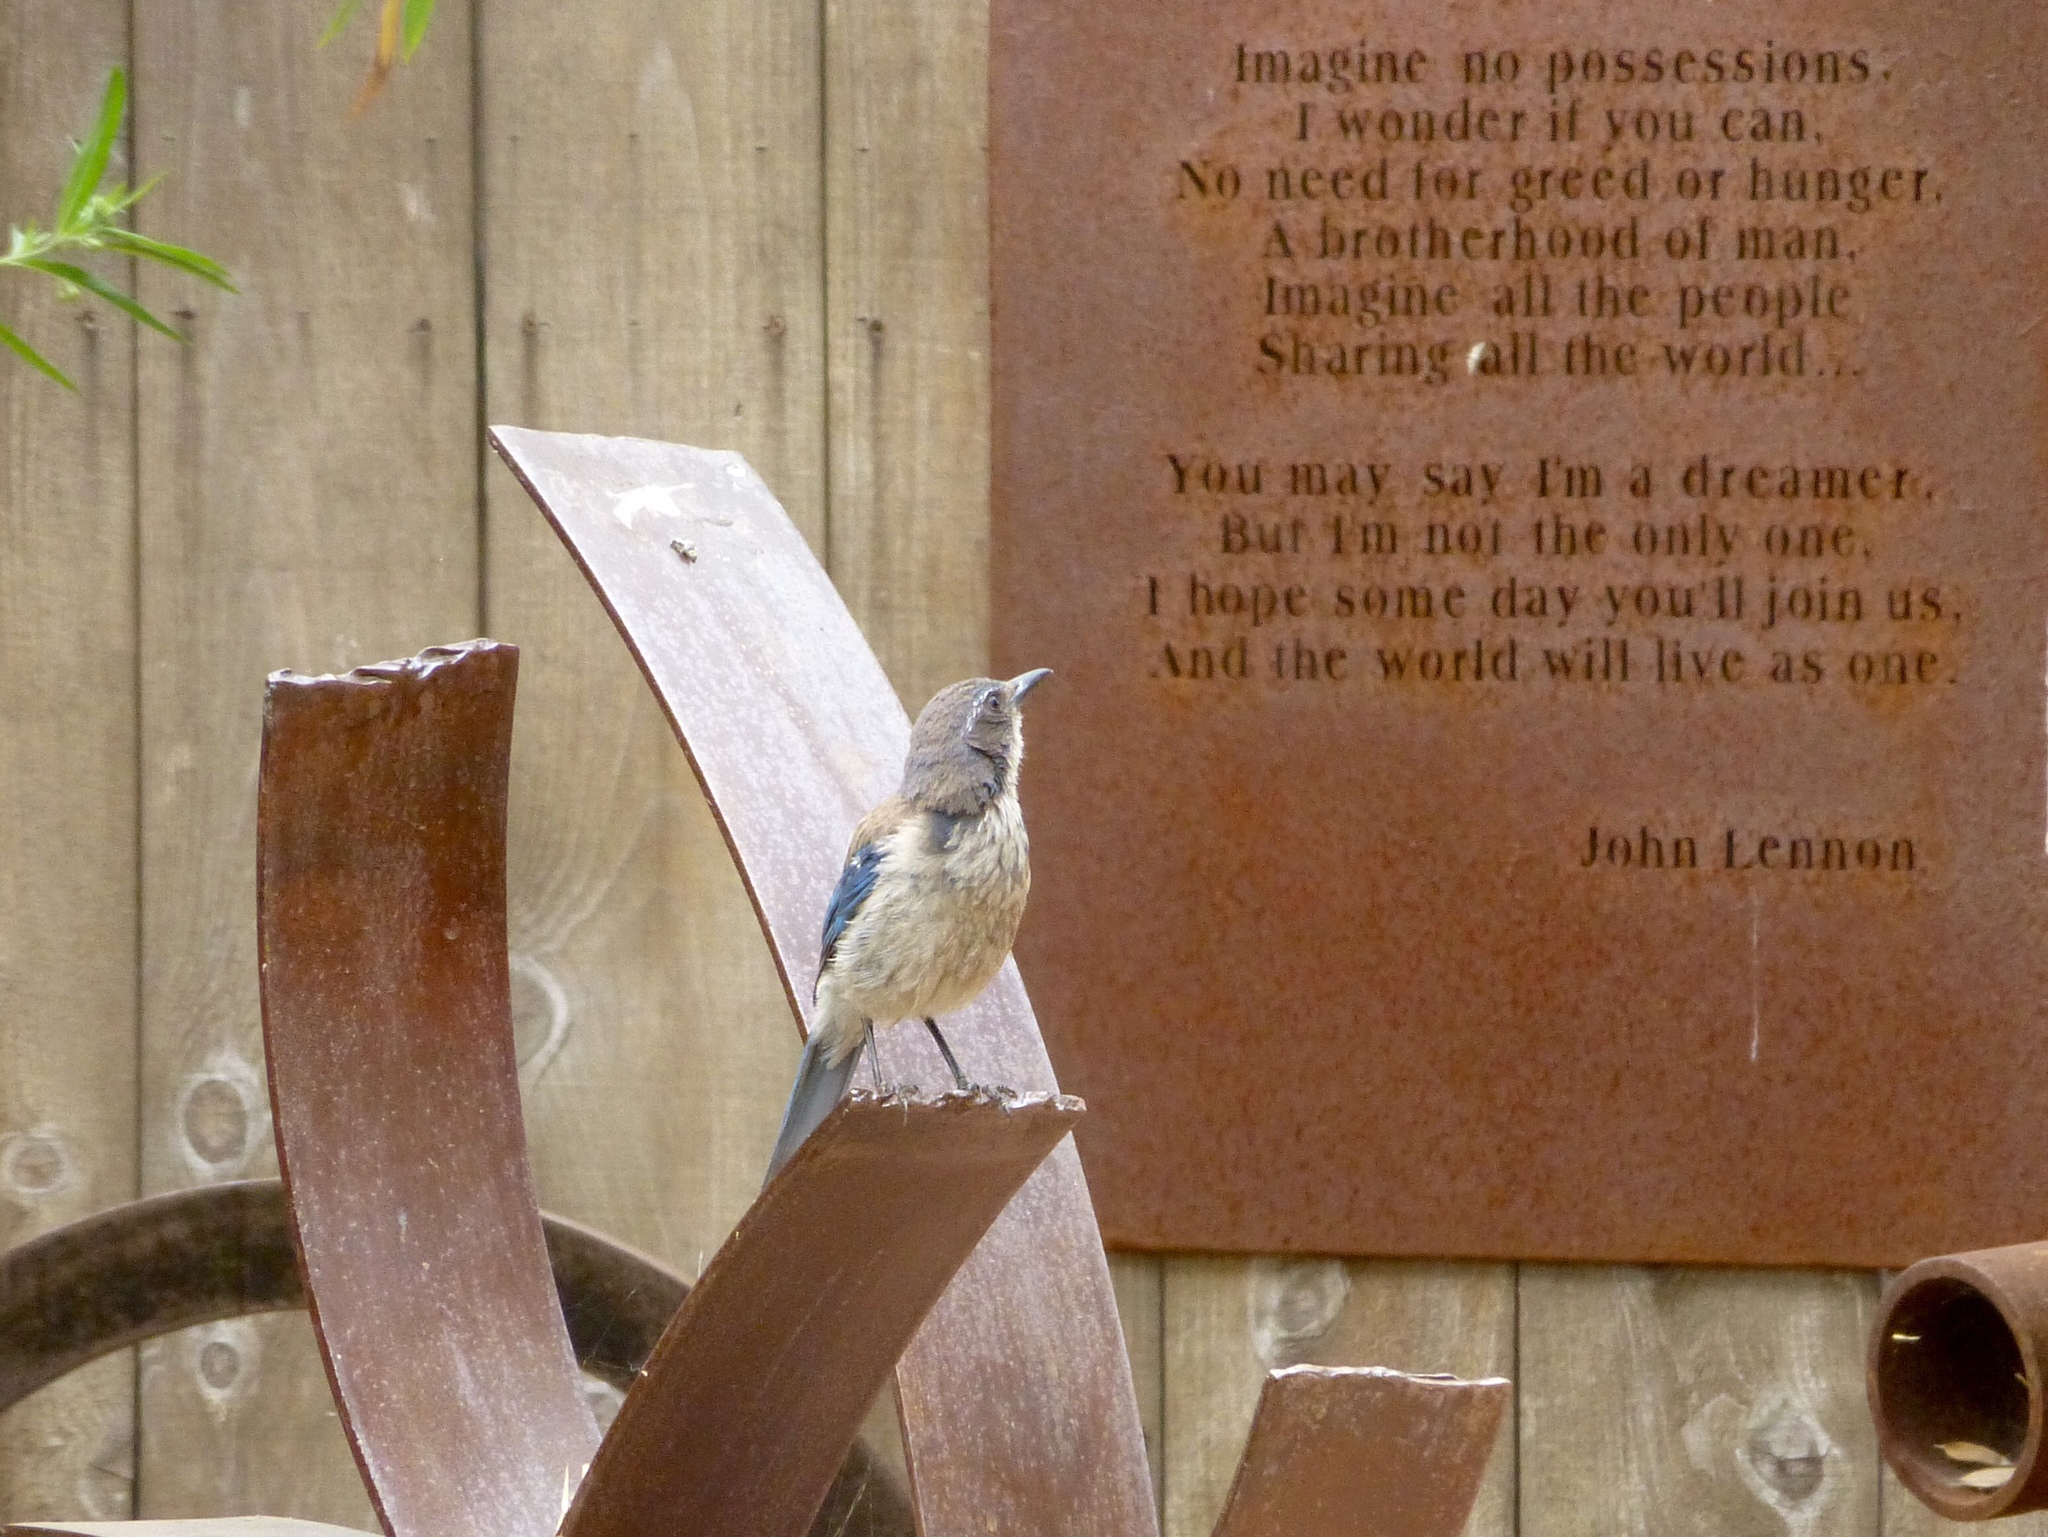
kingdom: Animalia
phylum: Chordata
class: Aves
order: Passeriformes
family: Corvidae
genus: Aphelocoma
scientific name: Aphelocoma californica
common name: California scrub-jay
